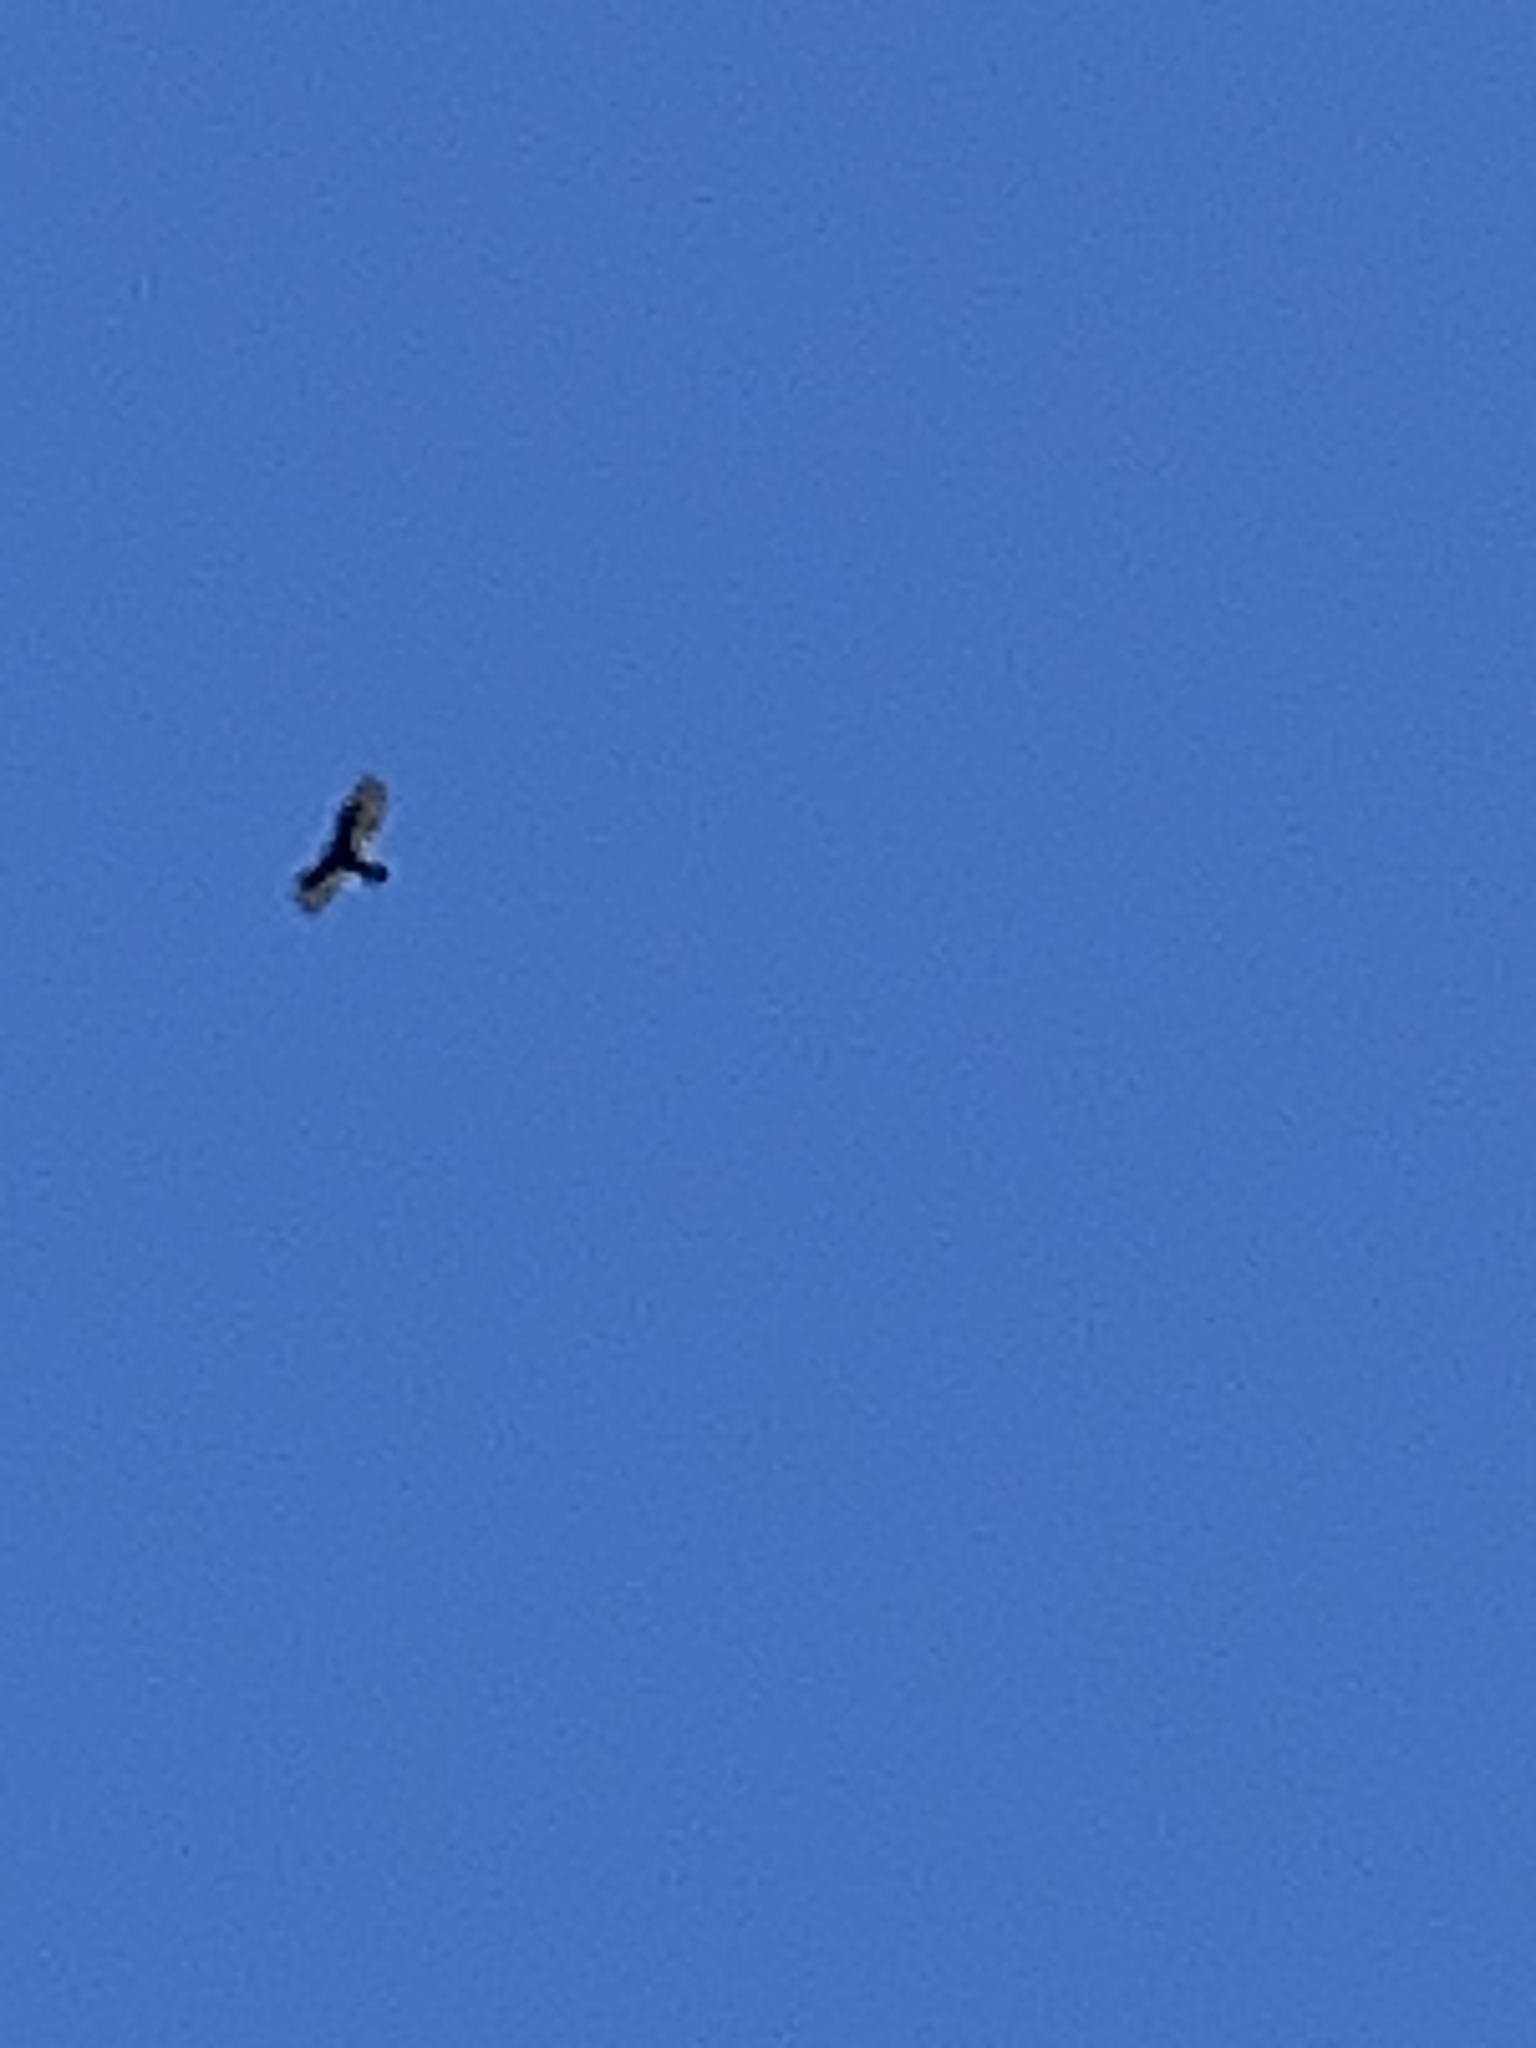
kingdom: Animalia
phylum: Chordata
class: Aves
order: Accipitriformes
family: Cathartidae
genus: Cathartes
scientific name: Cathartes aura
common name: Turkey vulture
